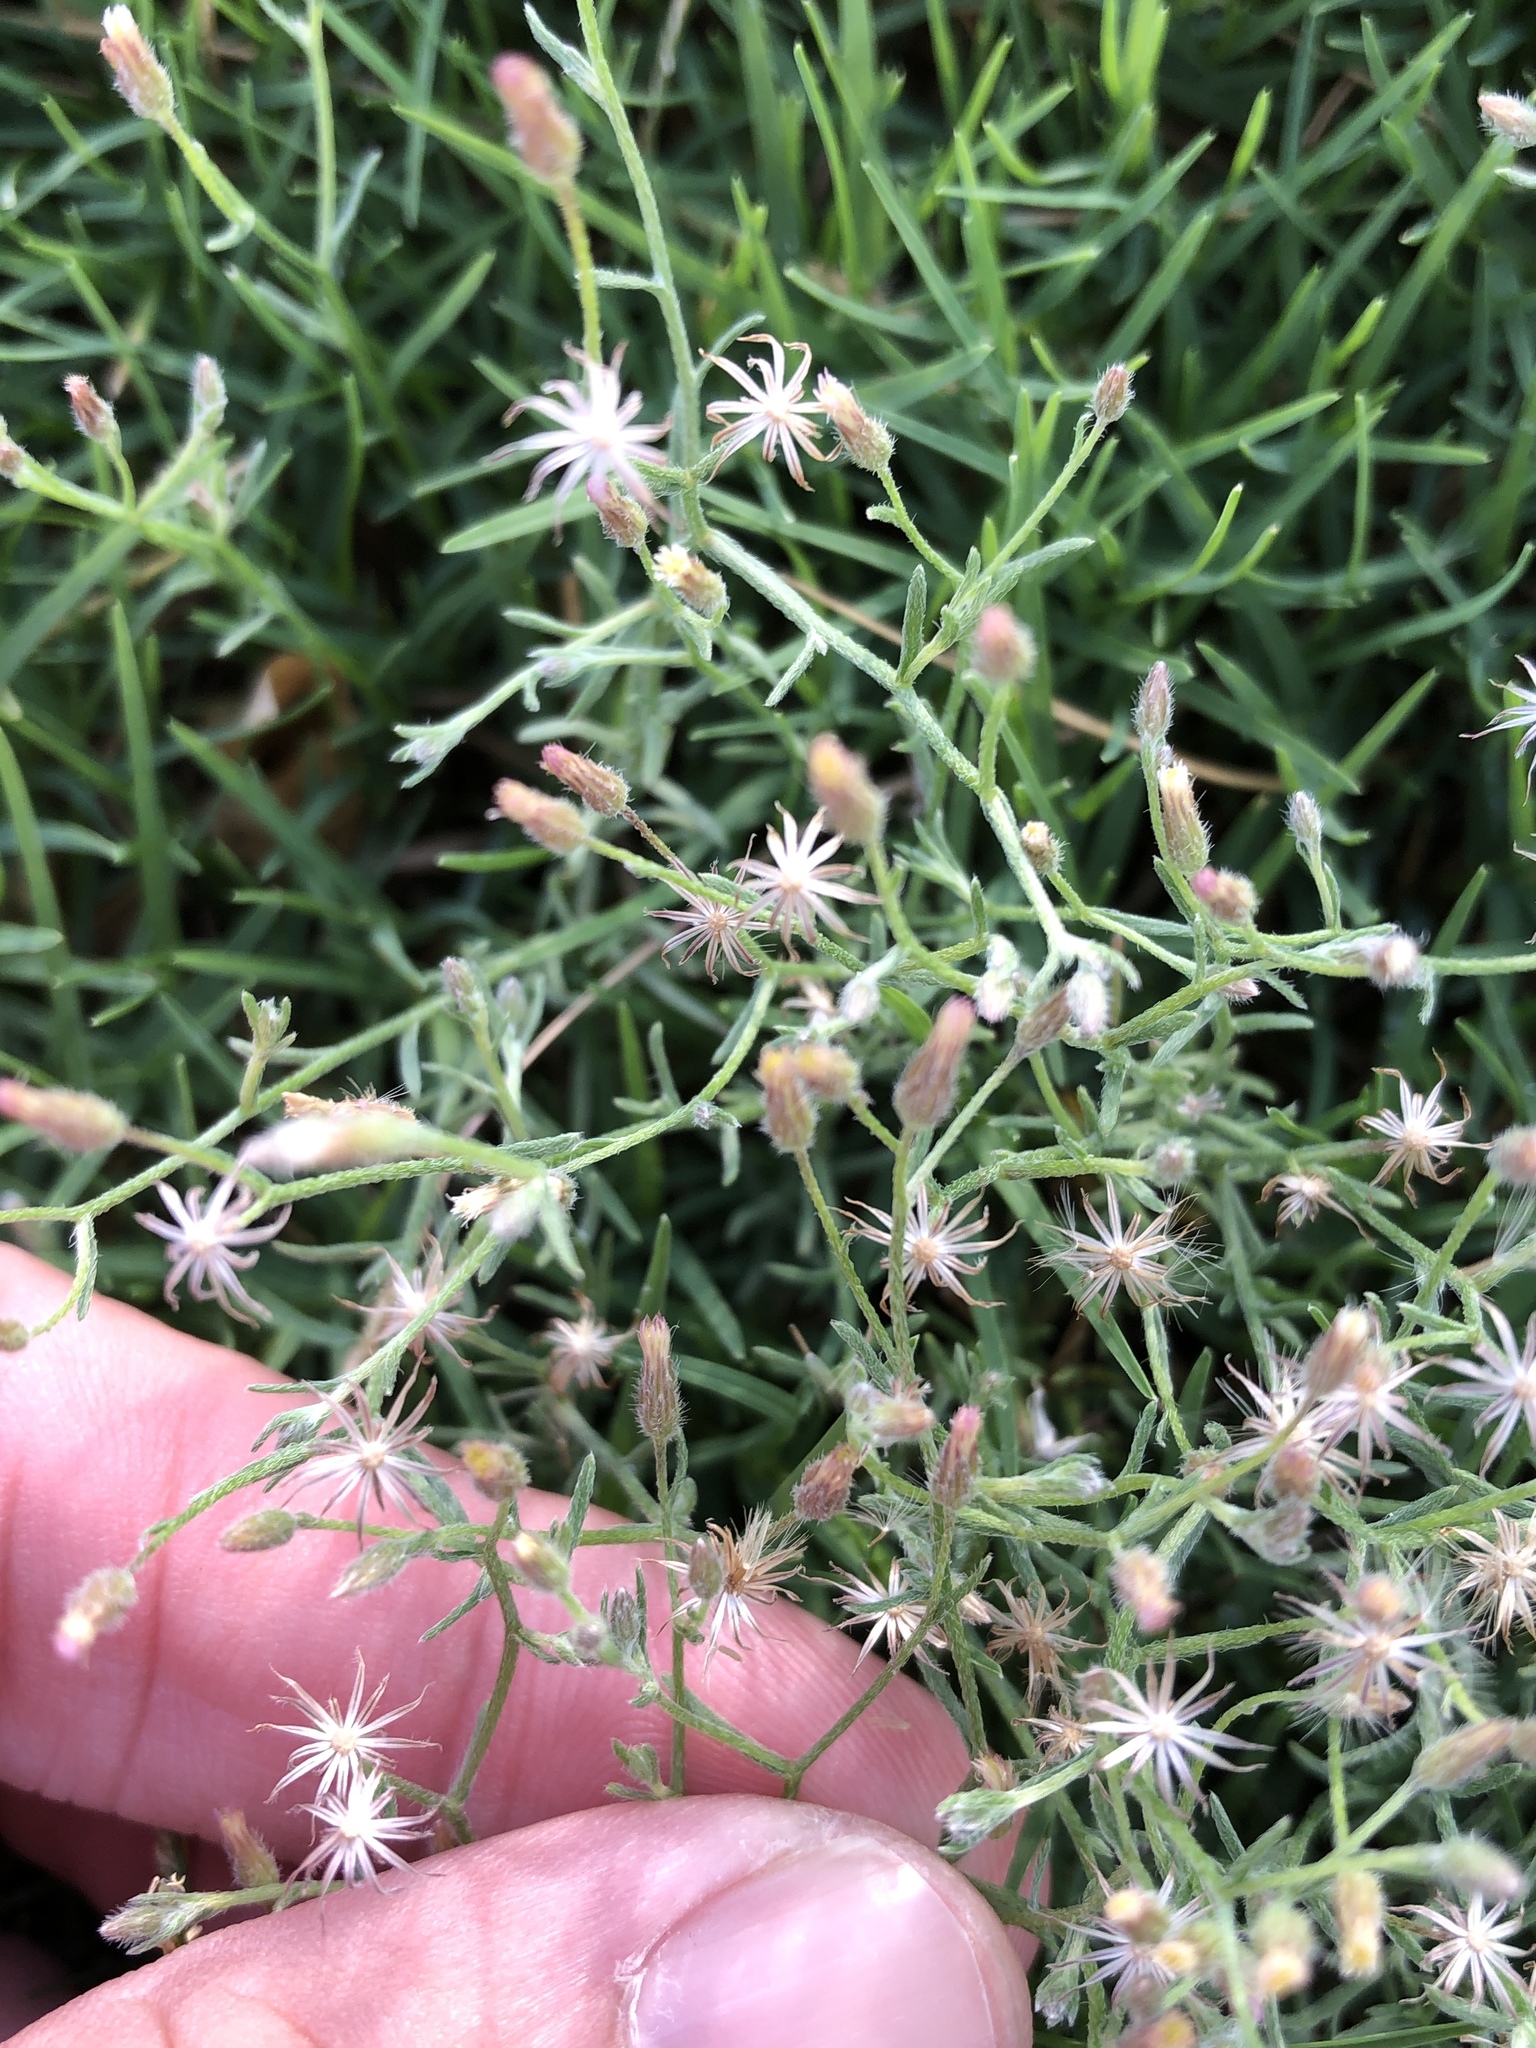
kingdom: Plantae
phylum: Tracheophyta
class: Magnoliopsida
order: Asterales
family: Asteraceae
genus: Erigeron
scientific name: Erigeron divaricatus
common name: Dwarf conyza
